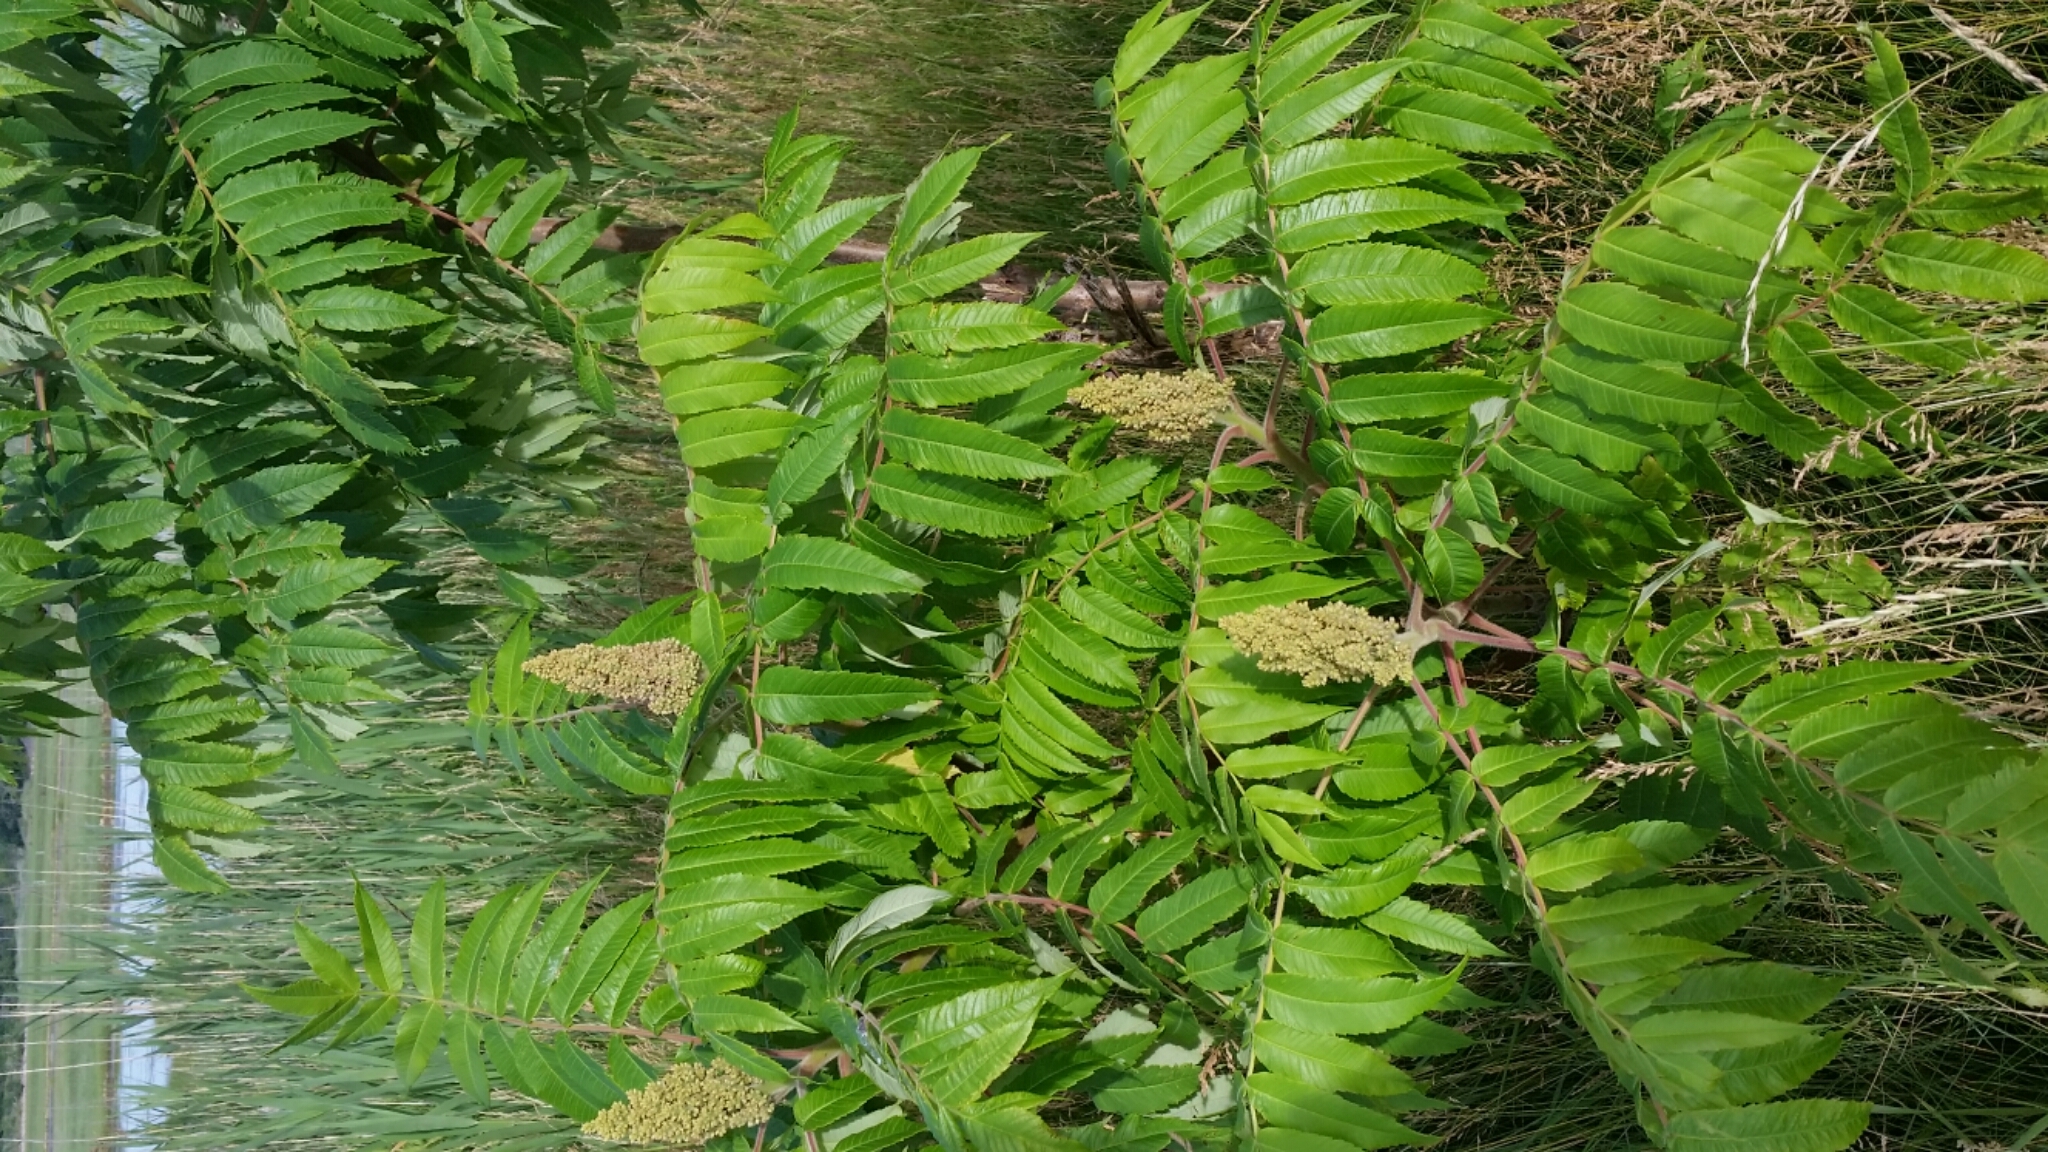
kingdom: Plantae
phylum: Tracheophyta
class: Magnoliopsida
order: Sapindales
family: Anacardiaceae
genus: Rhus
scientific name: Rhus typhina
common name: Staghorn sumac
